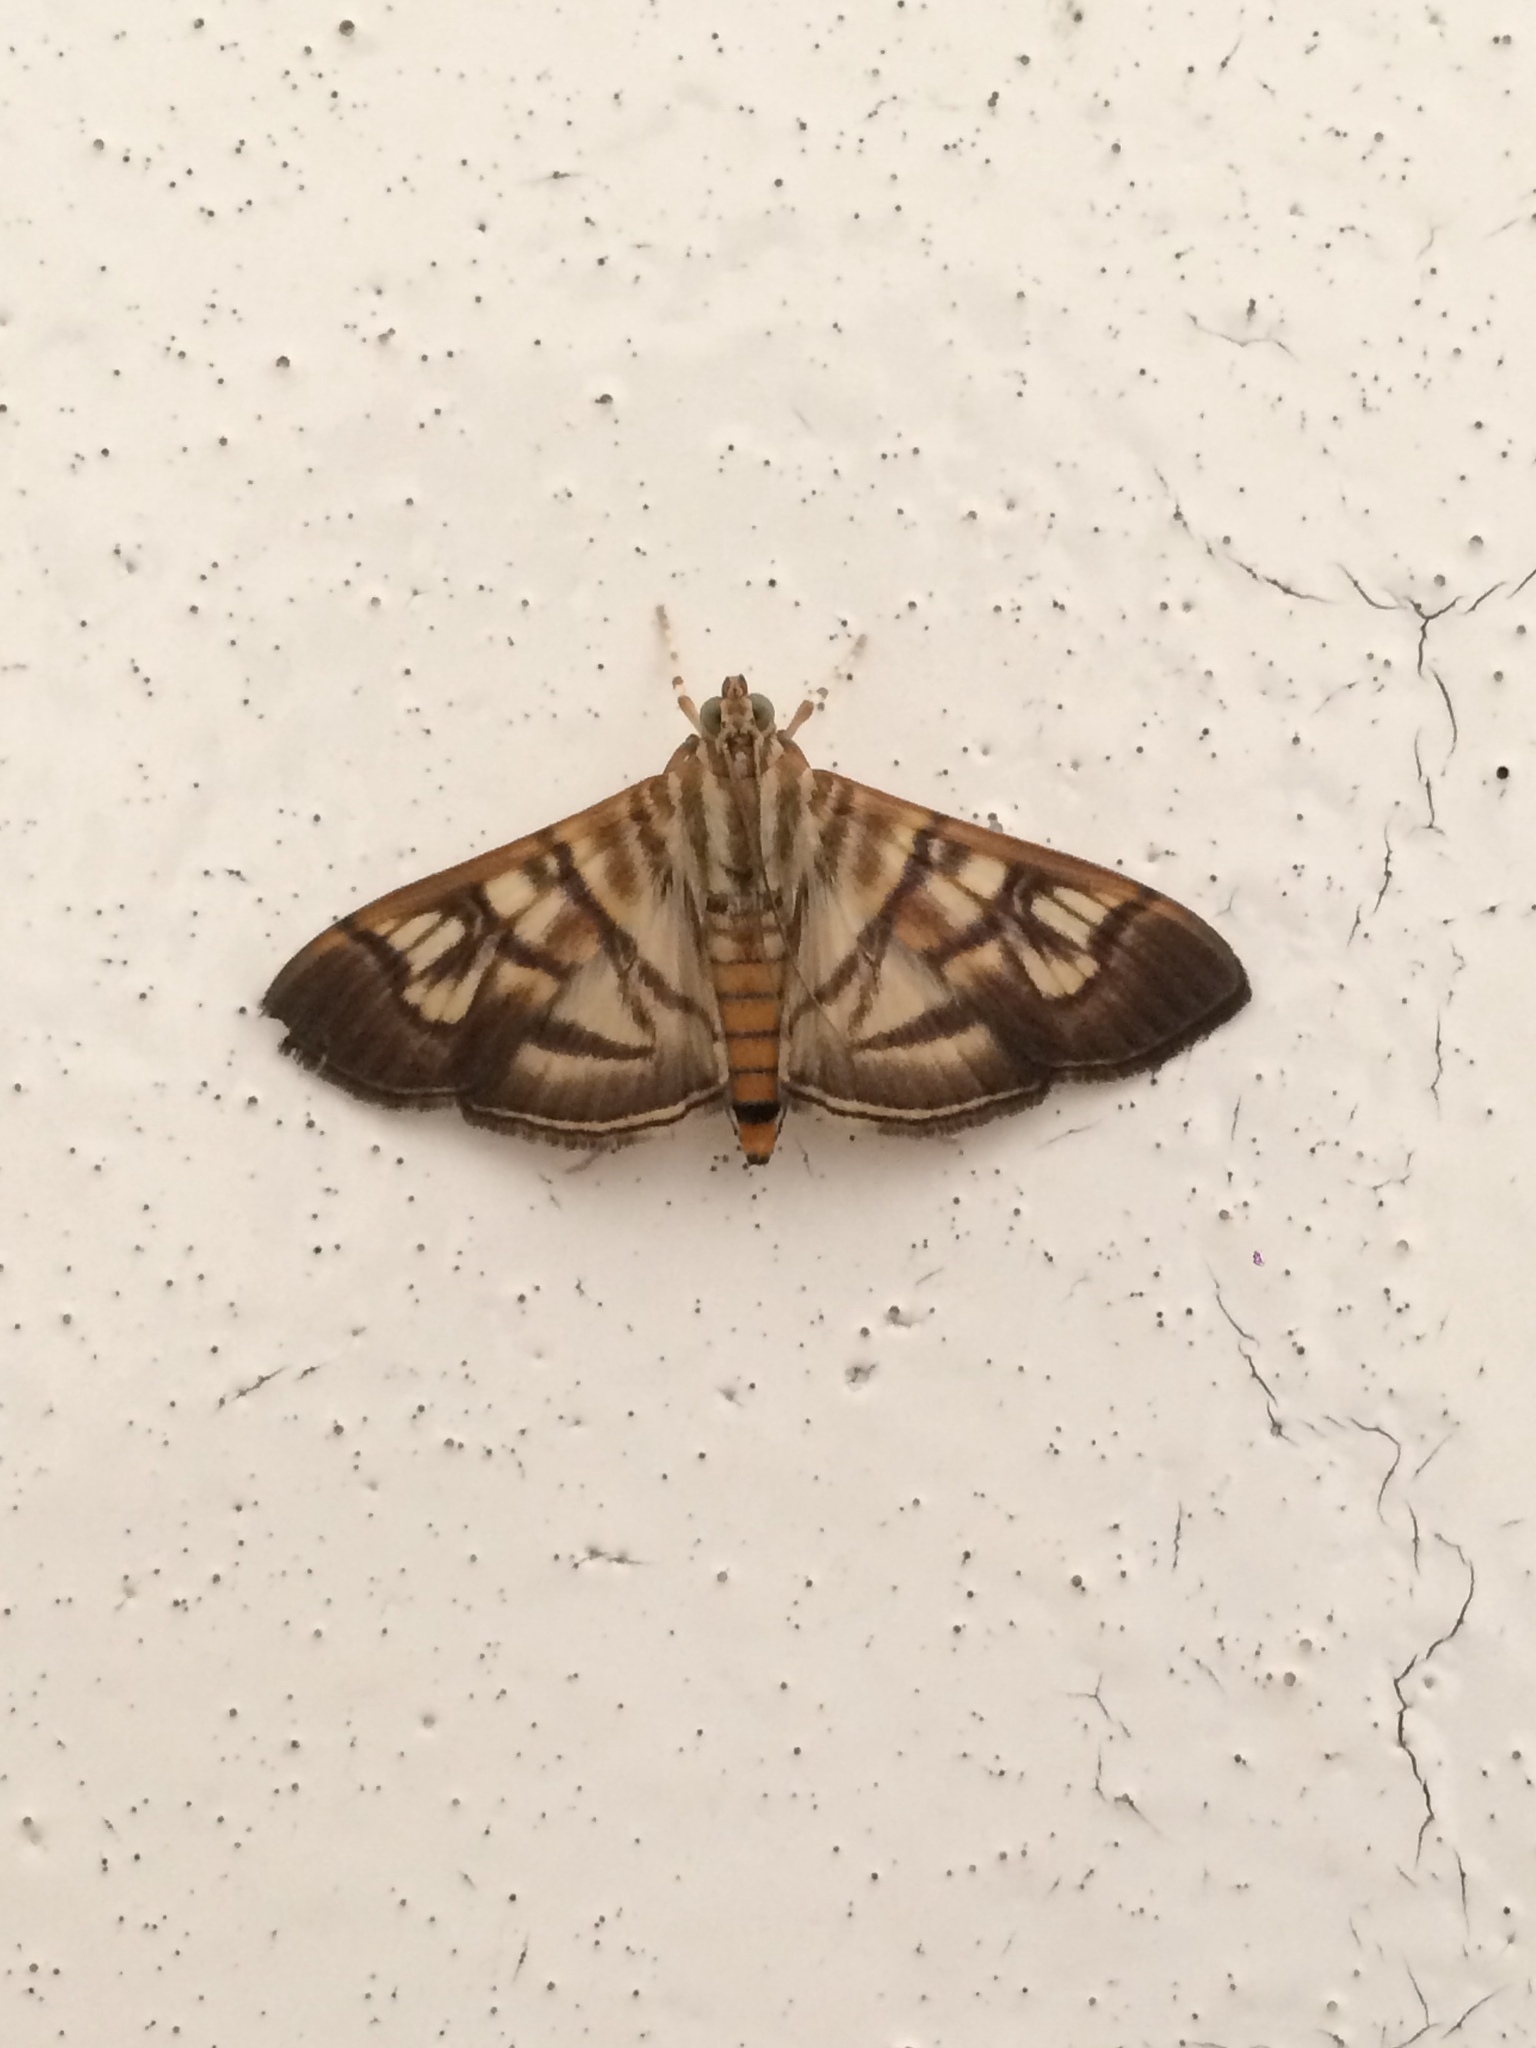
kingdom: Animalia
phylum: Arthropoda
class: Insecta
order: Lepidoptera
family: Crambidae
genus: Pilocrocis
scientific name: Pilocrocis lauralis
